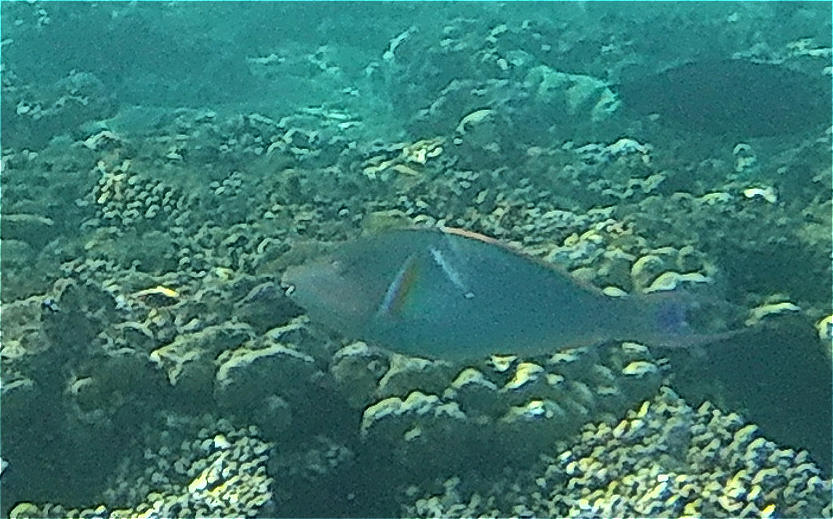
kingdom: Animalia
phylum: Chordata
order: Perciformes
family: Scaridae
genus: Hipposcarus
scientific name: Hipposcarus harid
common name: Candelamoa parrotfish
